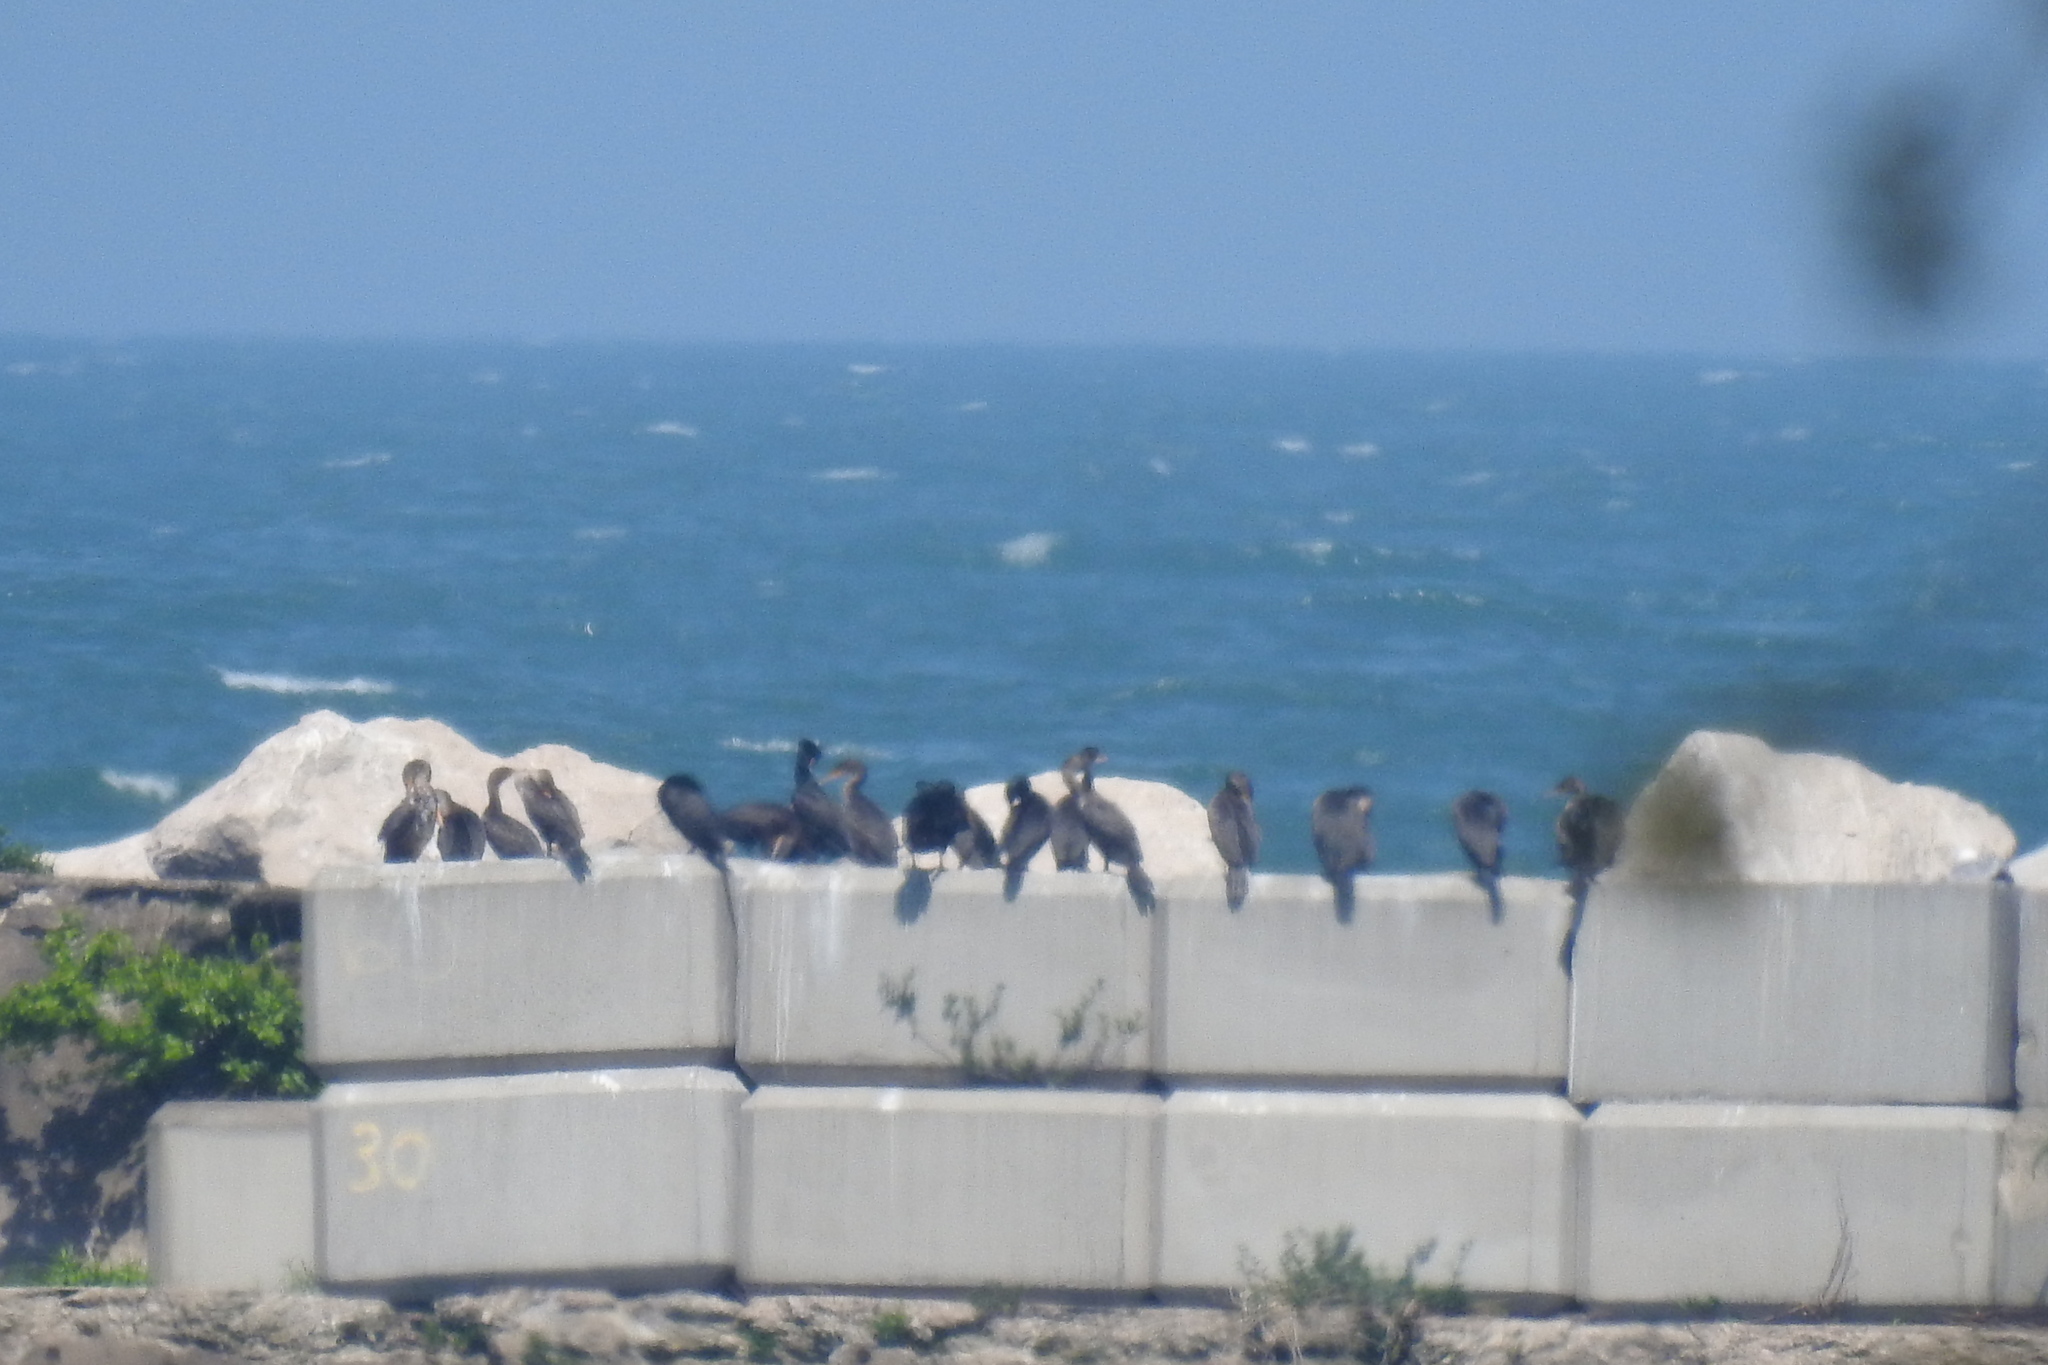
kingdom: Animalia
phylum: Chordata
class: Aves
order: Suliformes
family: Phalacrocoracidae
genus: Phalacrocorax
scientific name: Phalacrocorax auritus
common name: Double-crested cormorant
